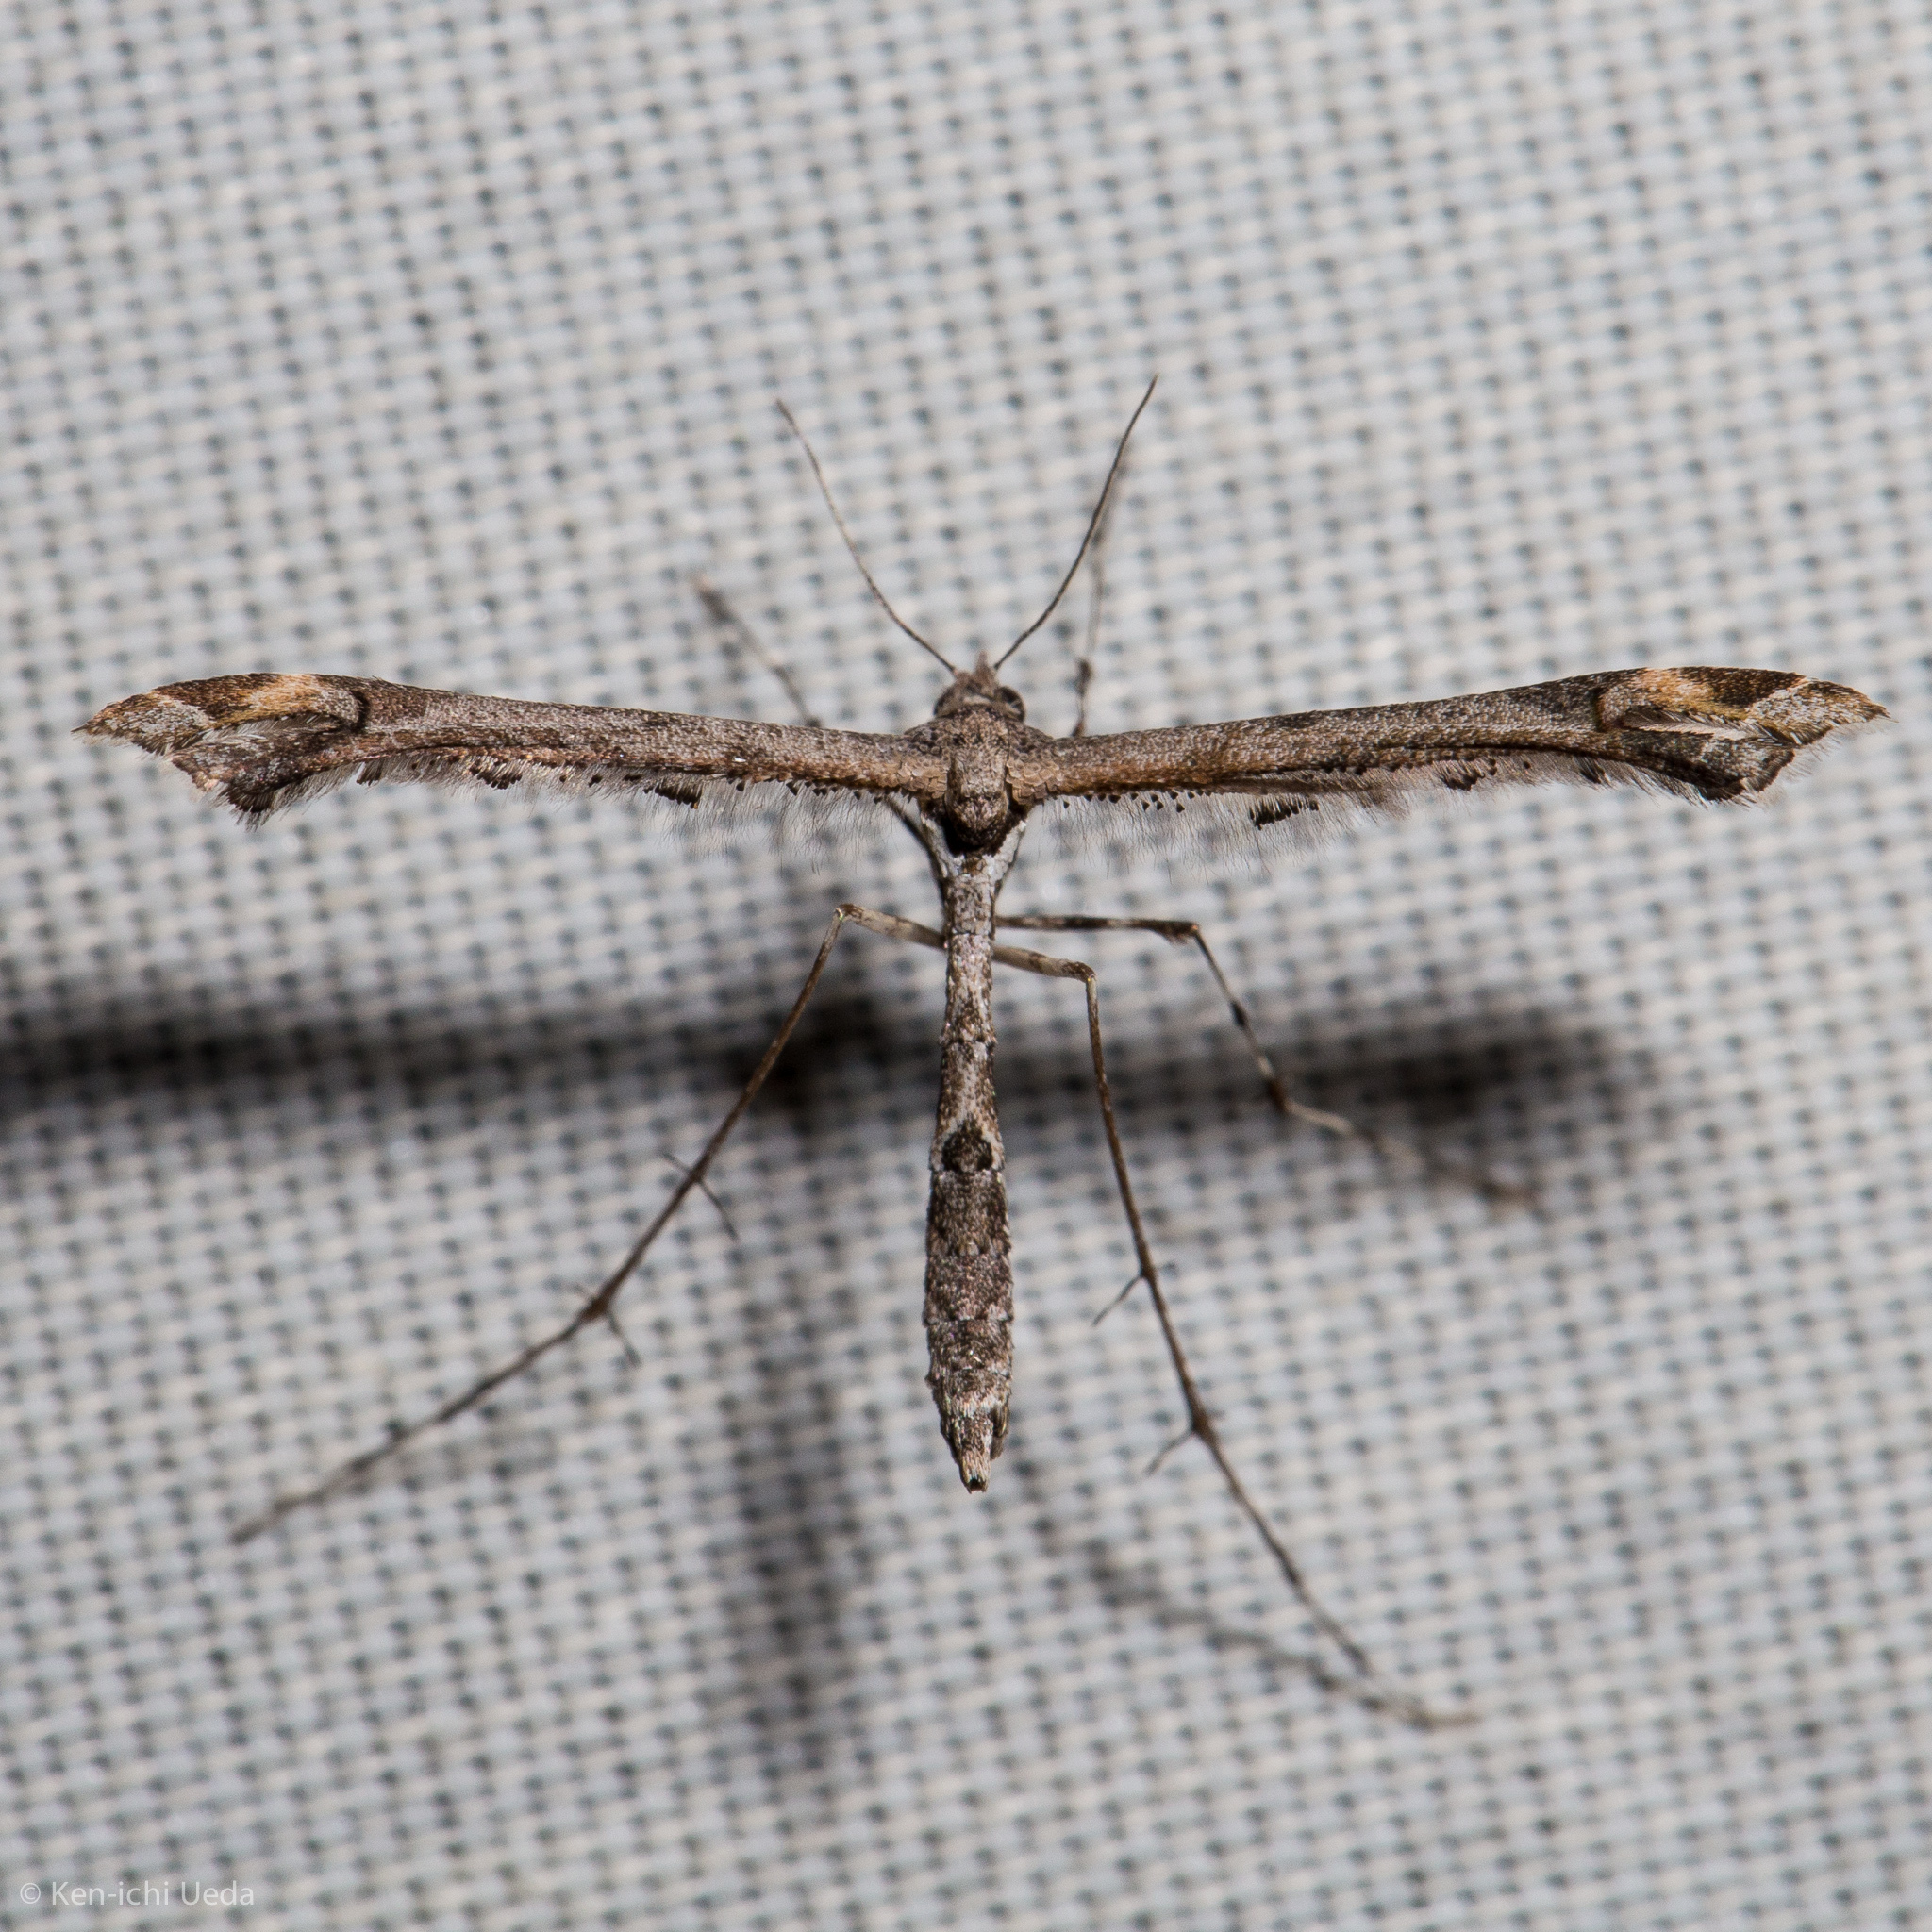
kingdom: Animalia
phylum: Arthropoda
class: Insecta
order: Lepidoptera
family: Pterophoridae
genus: Anstenoptilia
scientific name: Anstenoptilia marmarodactyla
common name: Moth
